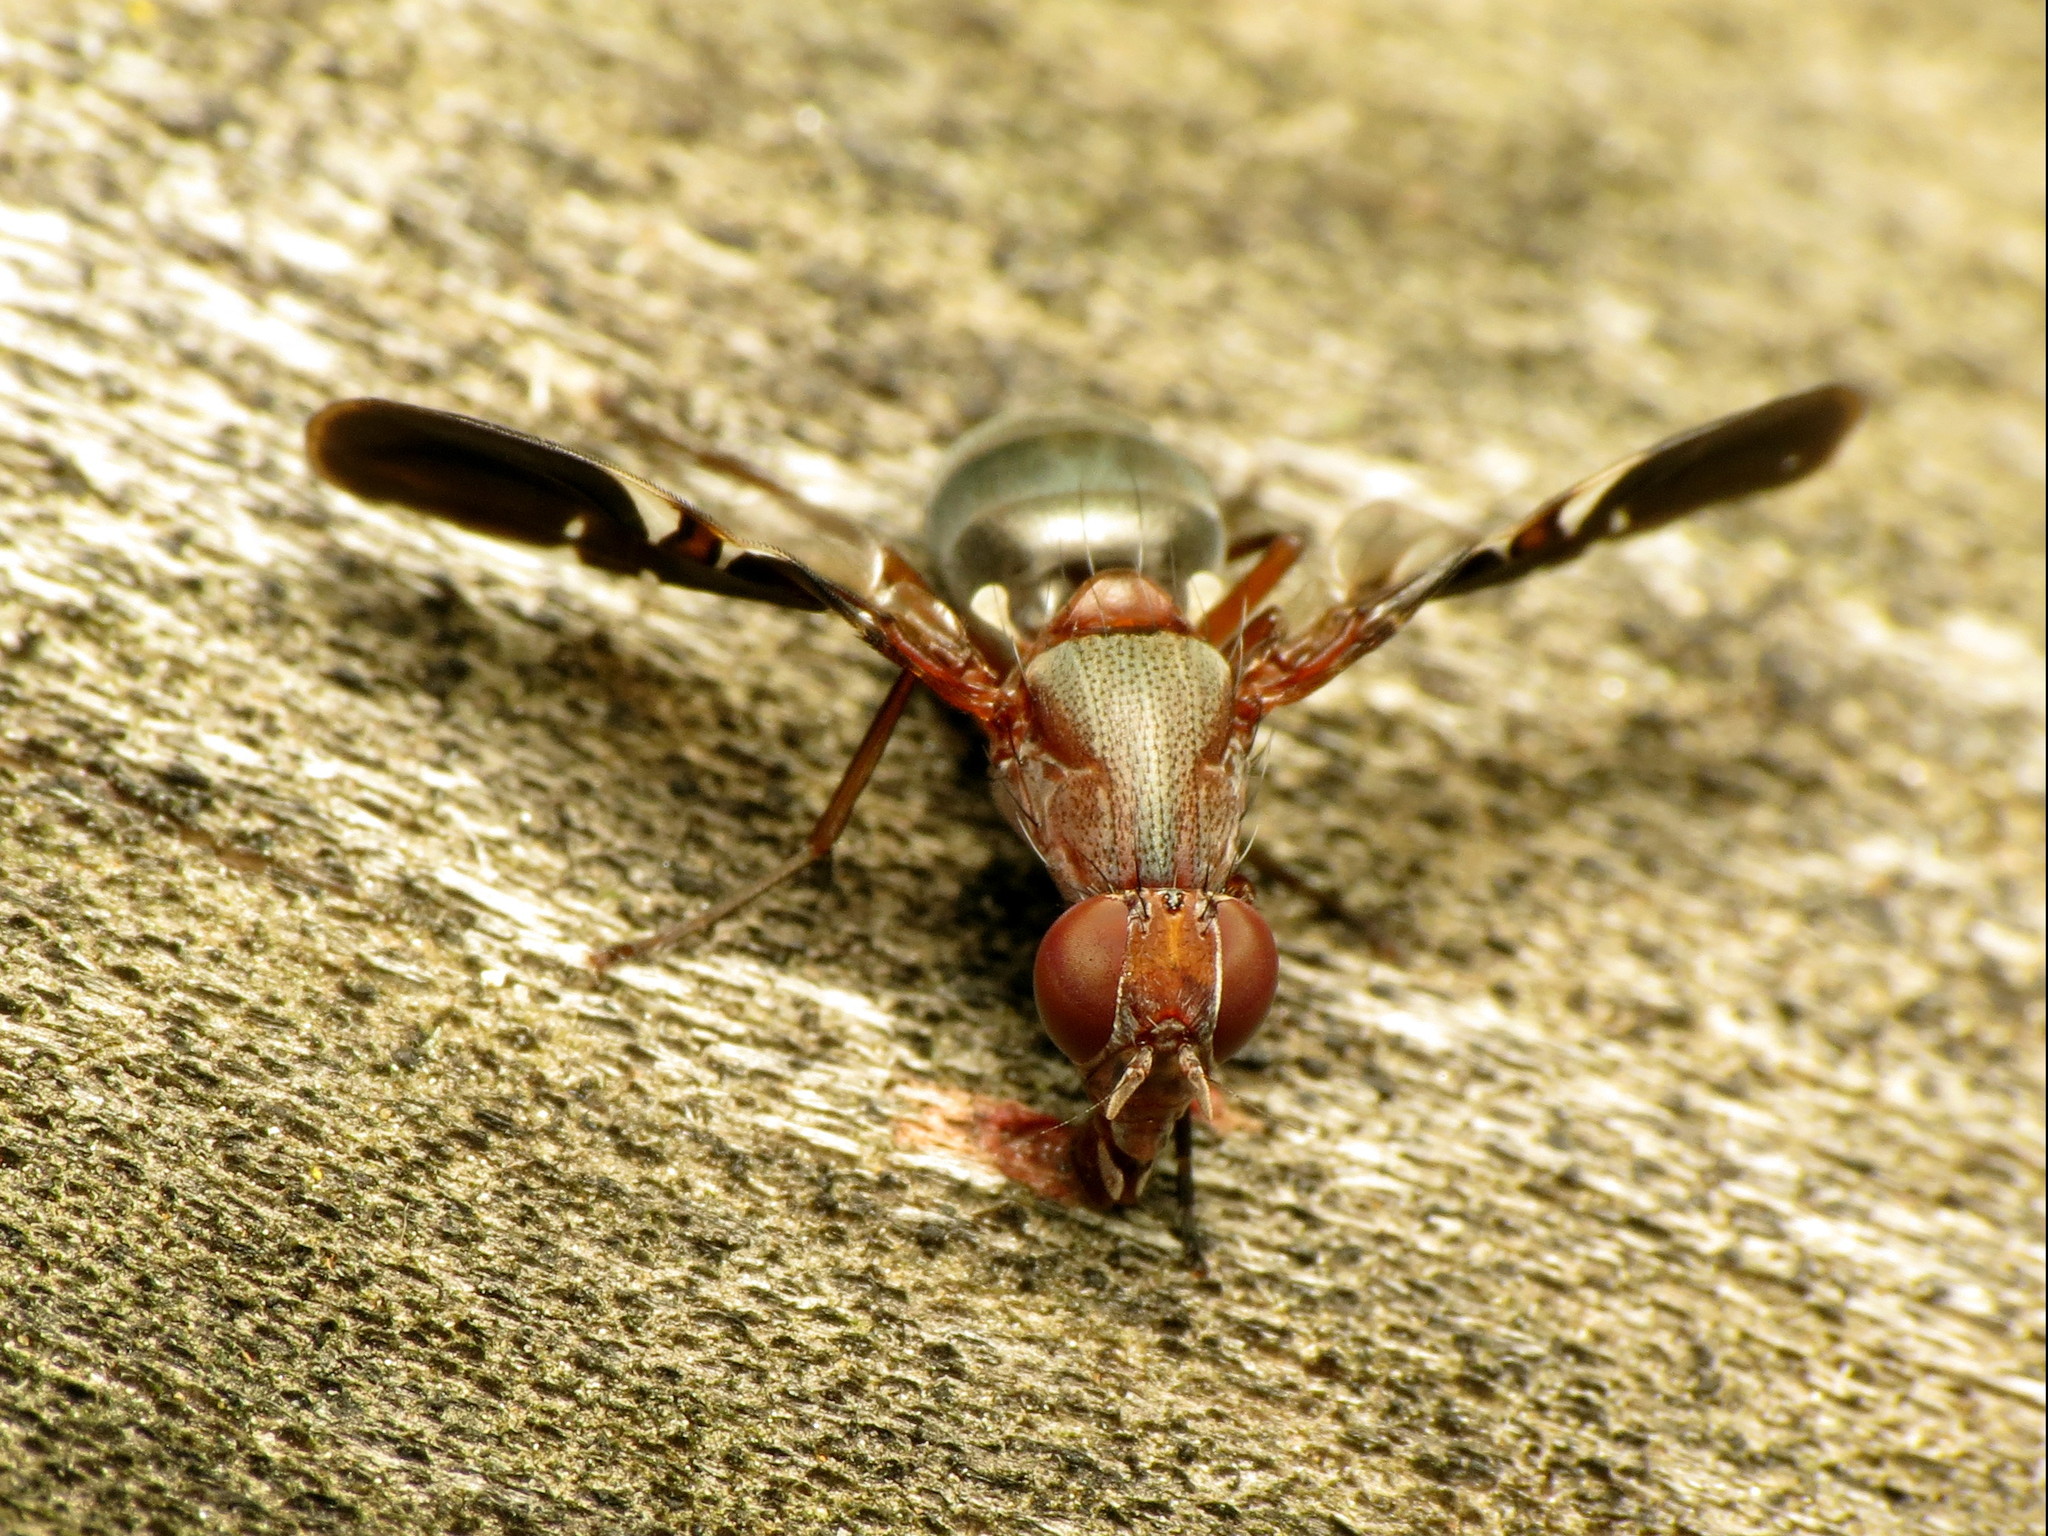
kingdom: Animalia
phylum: Arthropoda
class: Insecta
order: Diptera
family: Ulidiidae
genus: Delphinia
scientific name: Delphinia picta
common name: Common picture-winged fly
